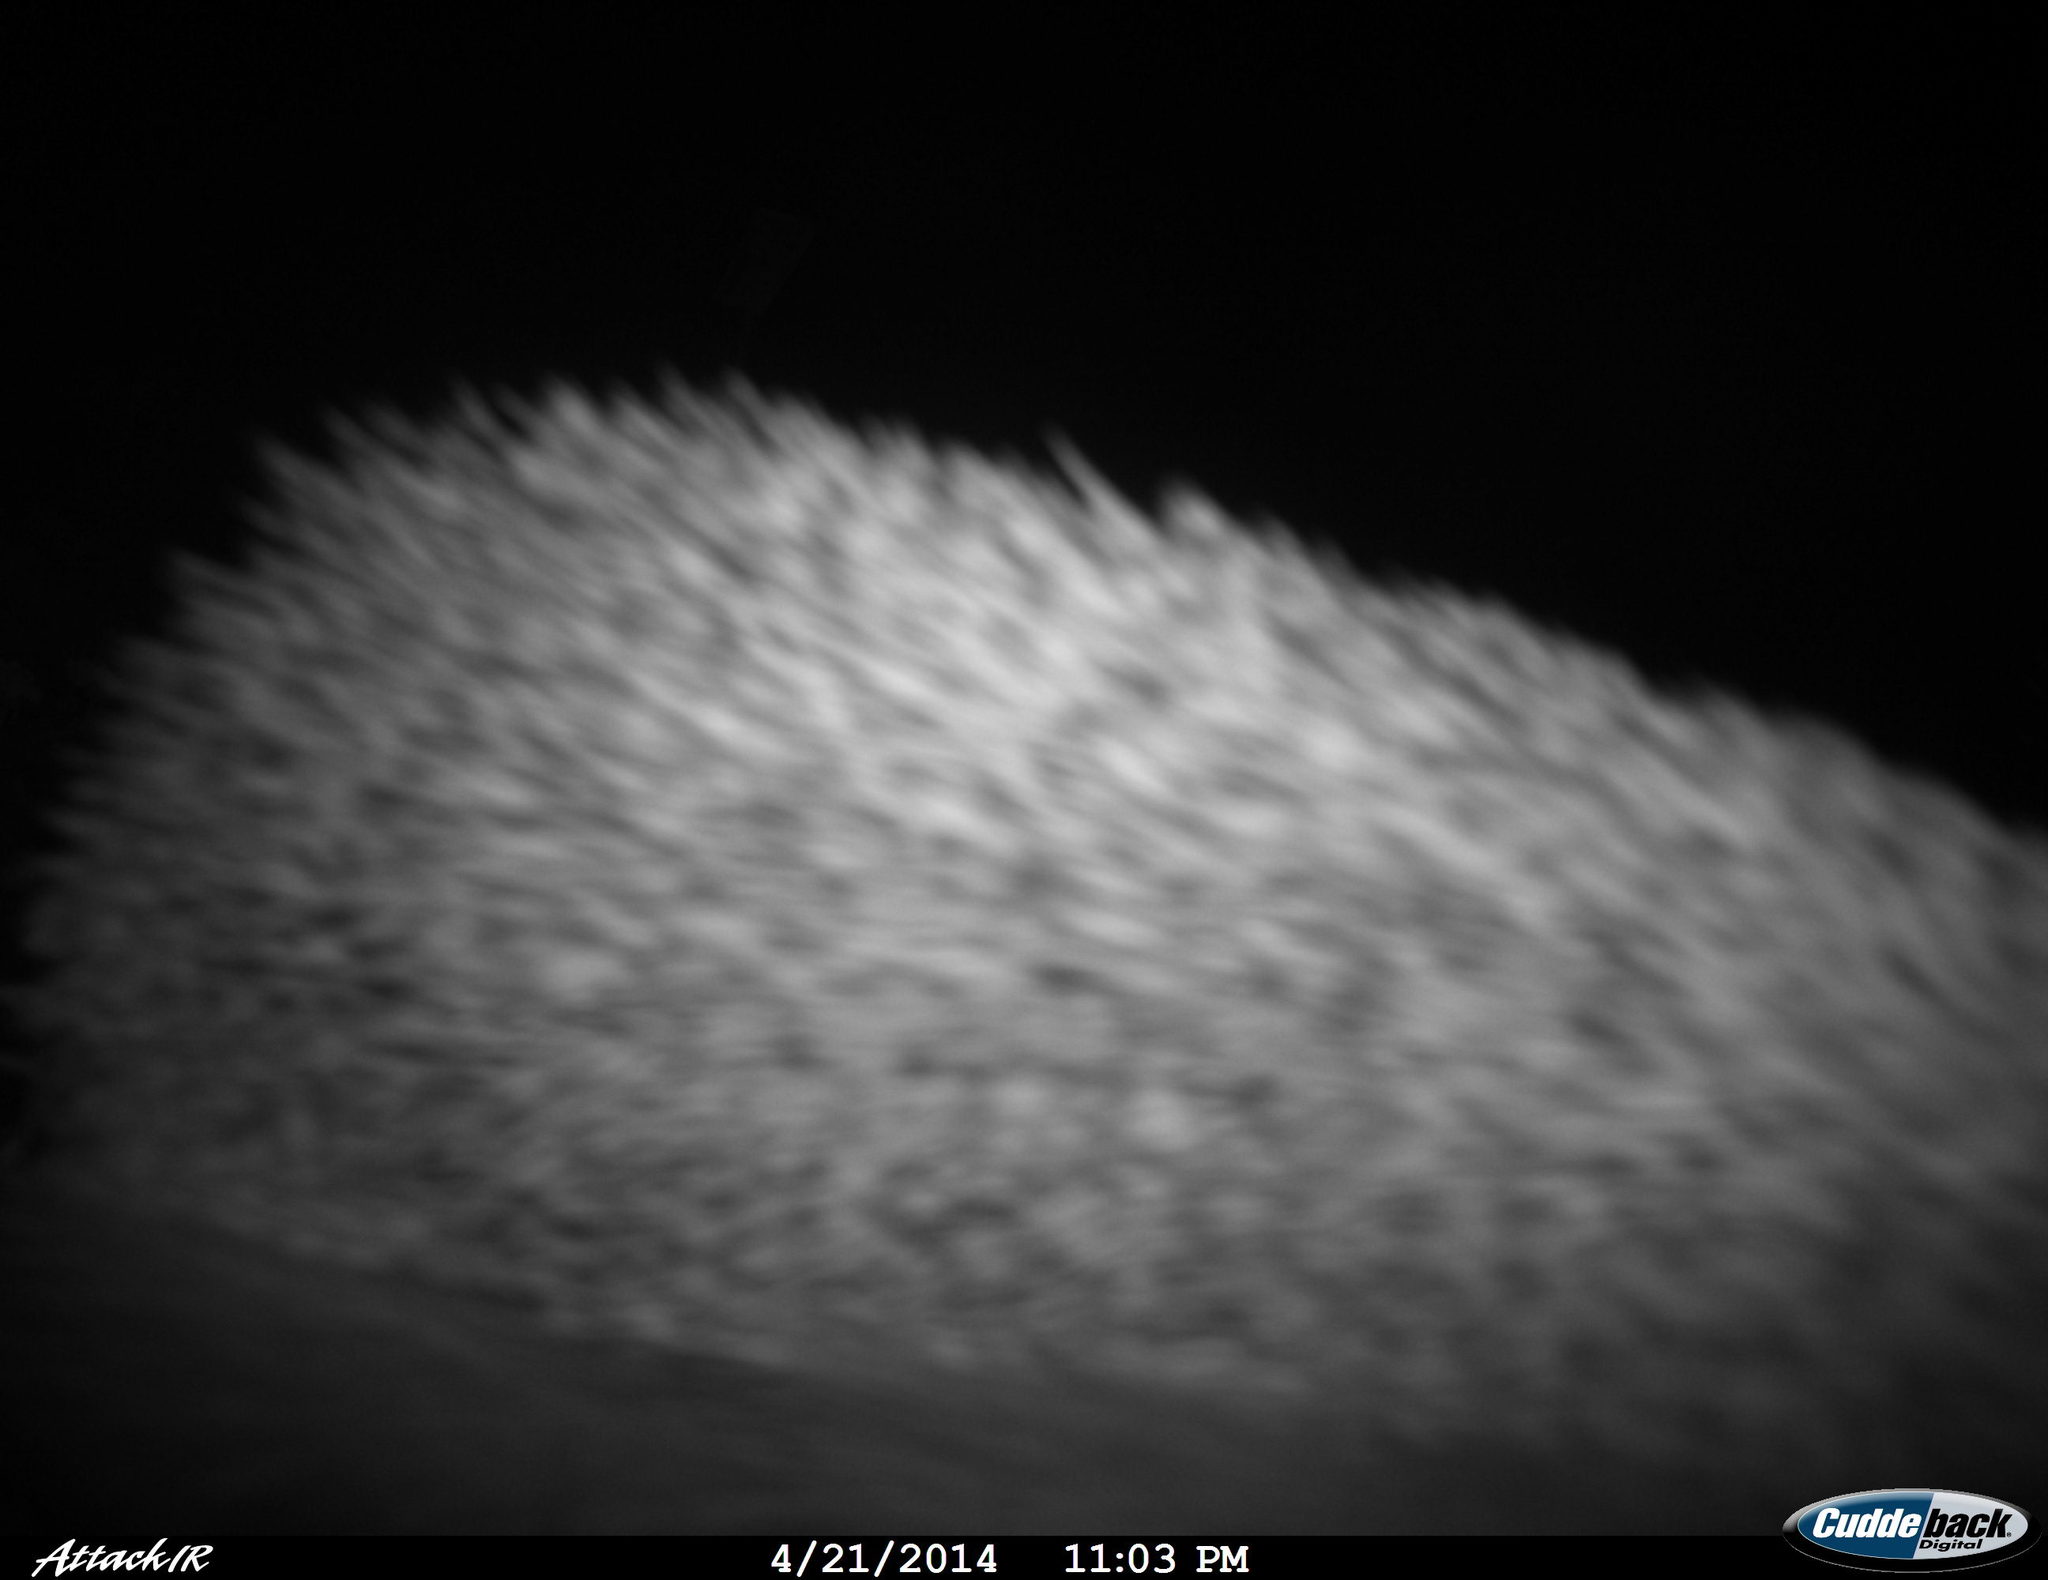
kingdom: Animalia
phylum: Chordata
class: Mammalia
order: Erinaceomorpha
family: Erinaceidae
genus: Erinaceus
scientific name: Erinaceus europaeus
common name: West european hedgehog
